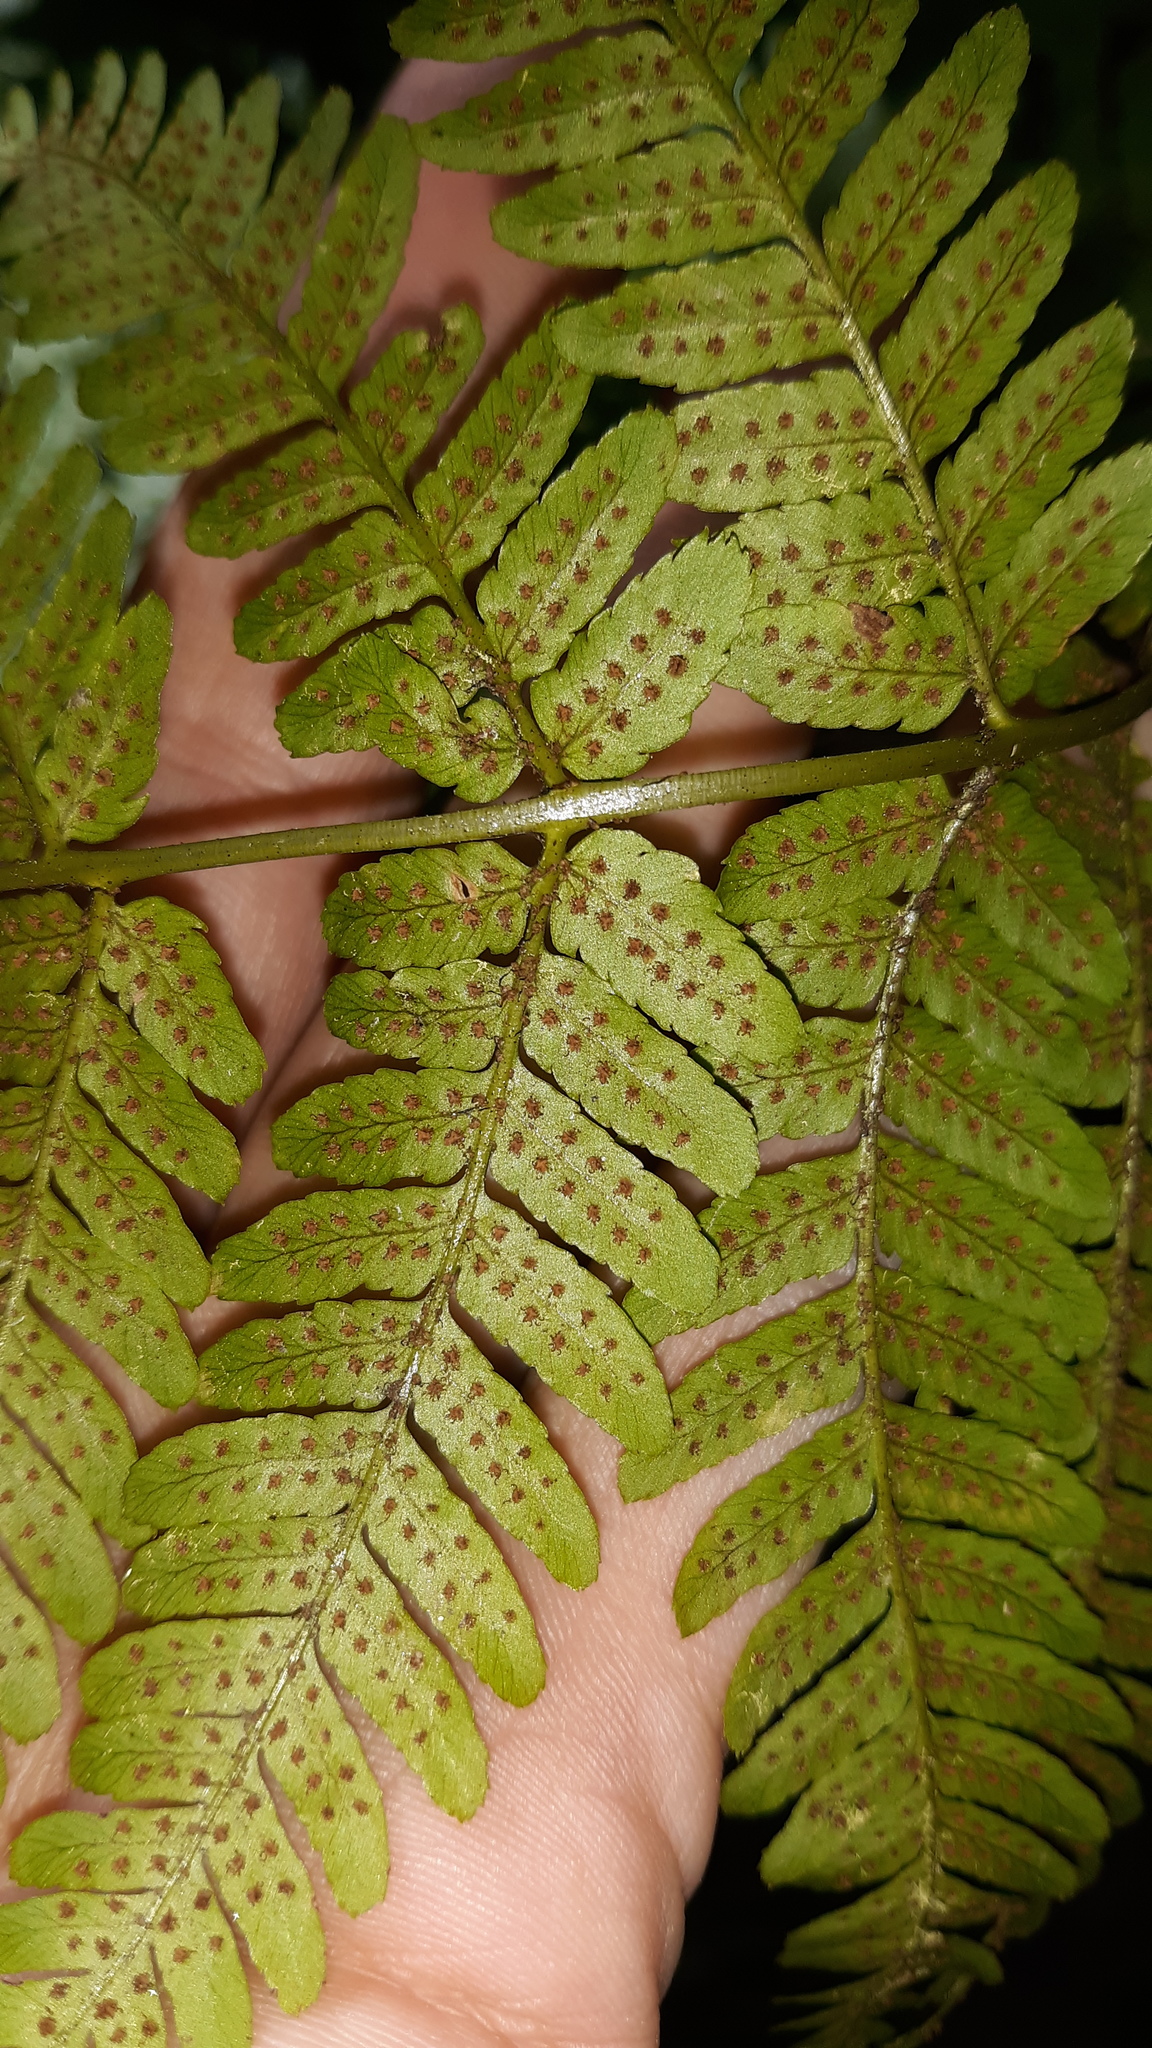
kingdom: Plantae
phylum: Tracheophyta
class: Polypodiopsida
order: Polypodiales
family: Dryopteridaceae
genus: Dryopteris
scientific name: Dryopteris erythrosora
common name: Autumn fern
